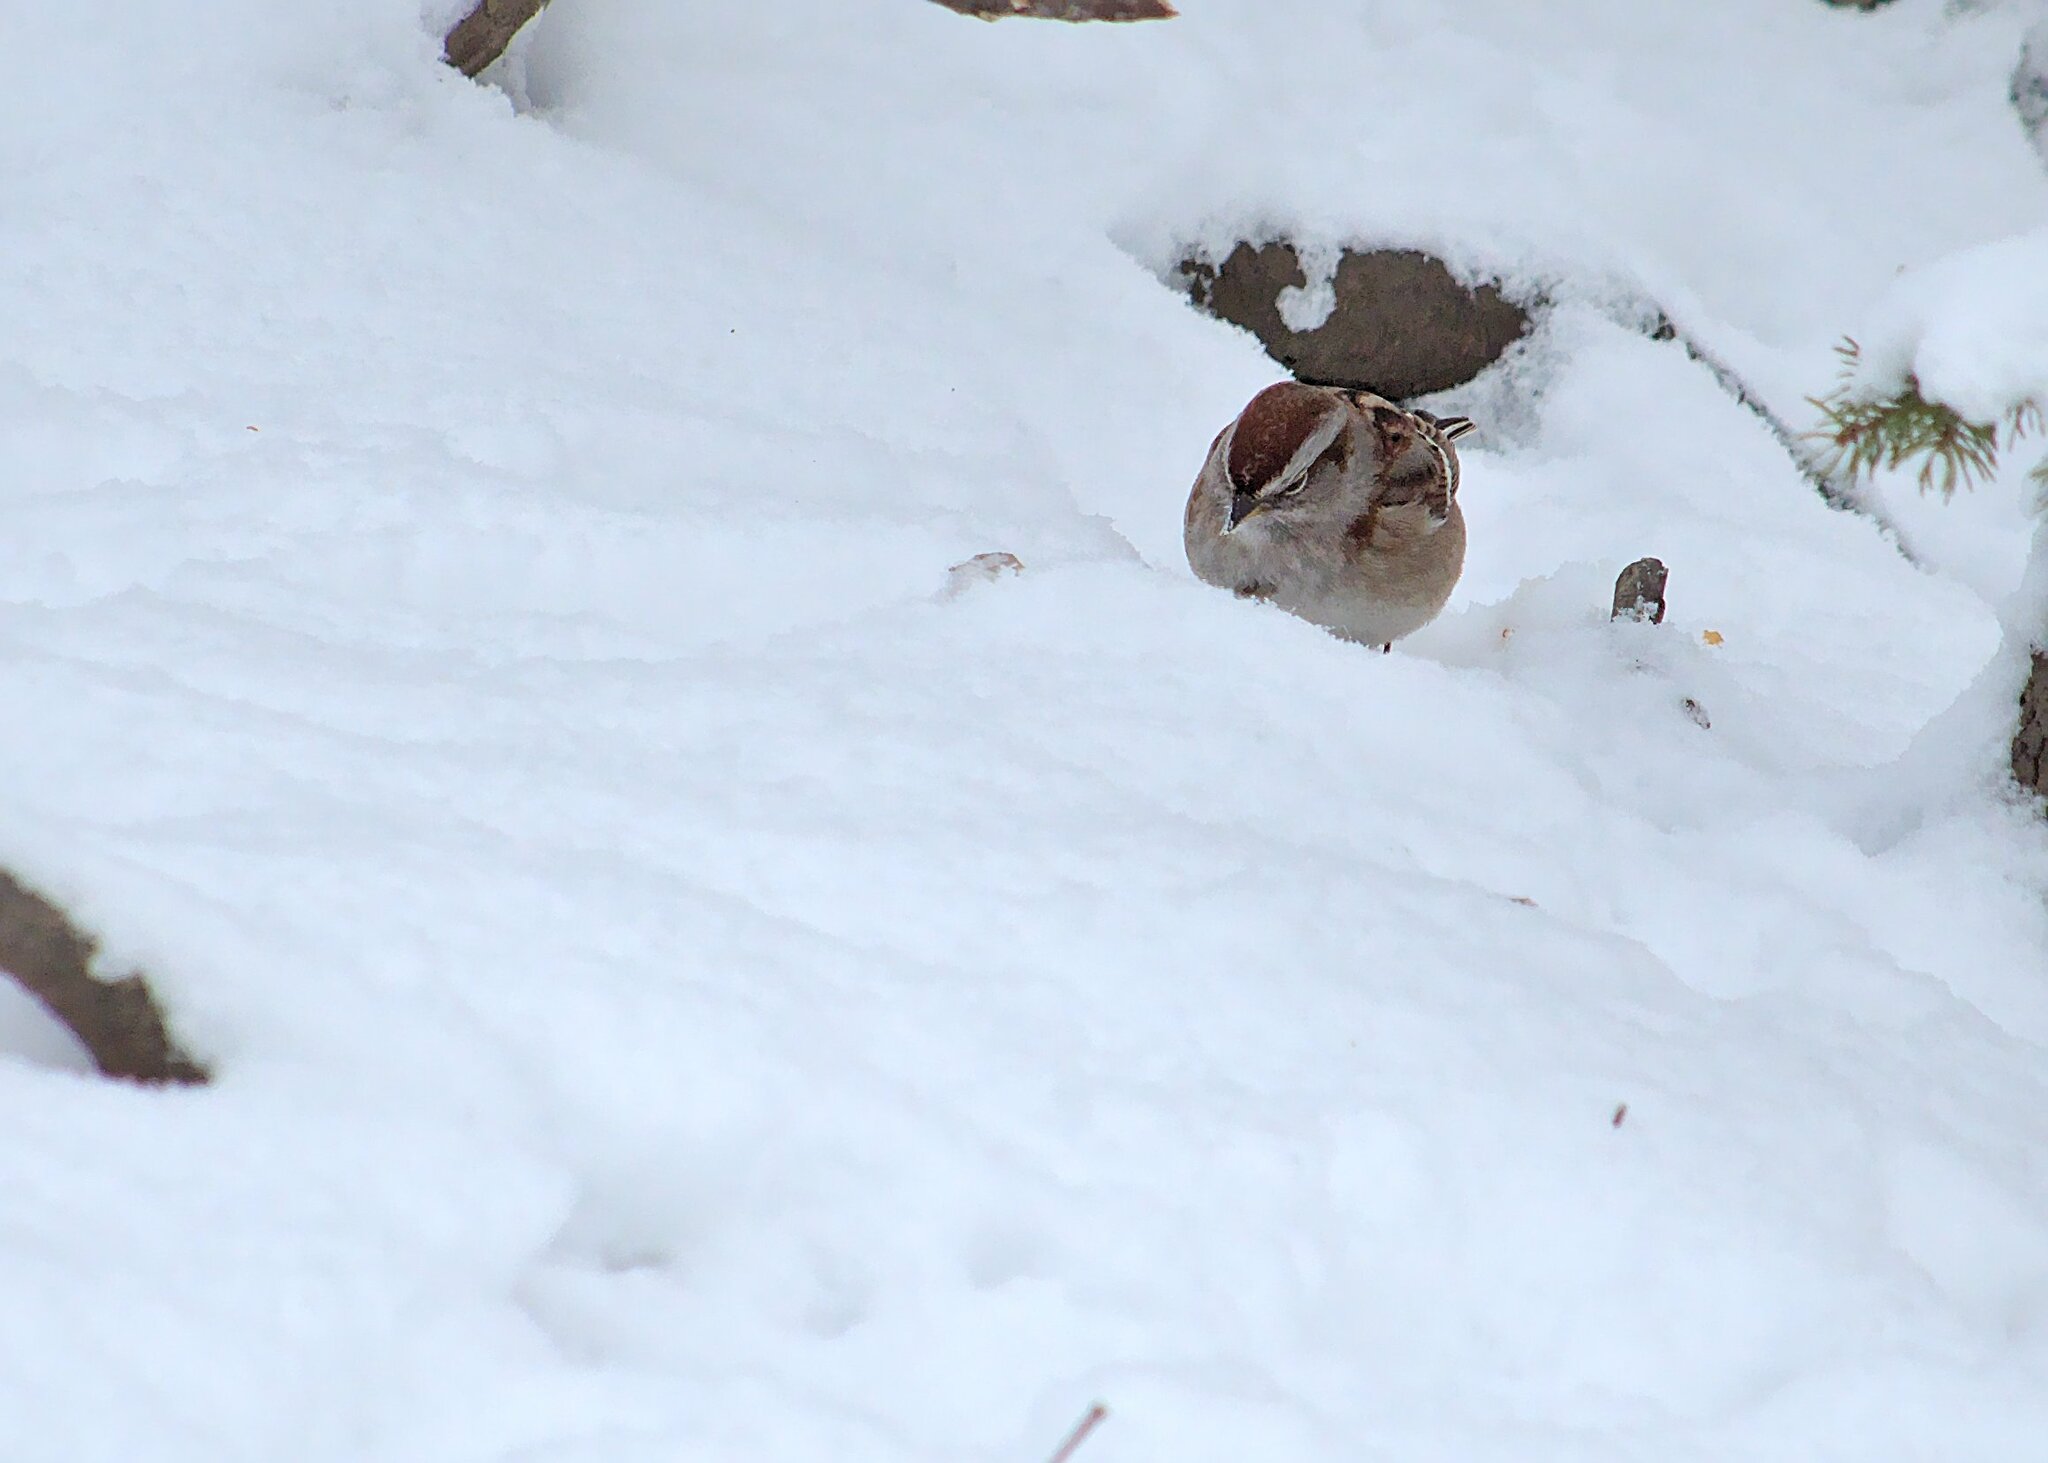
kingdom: Animalia
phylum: Chordata
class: Aves
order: Passeriformes
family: Passerellidae
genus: Spizelloides
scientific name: Spizelloides arborea
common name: American tree sparrow
